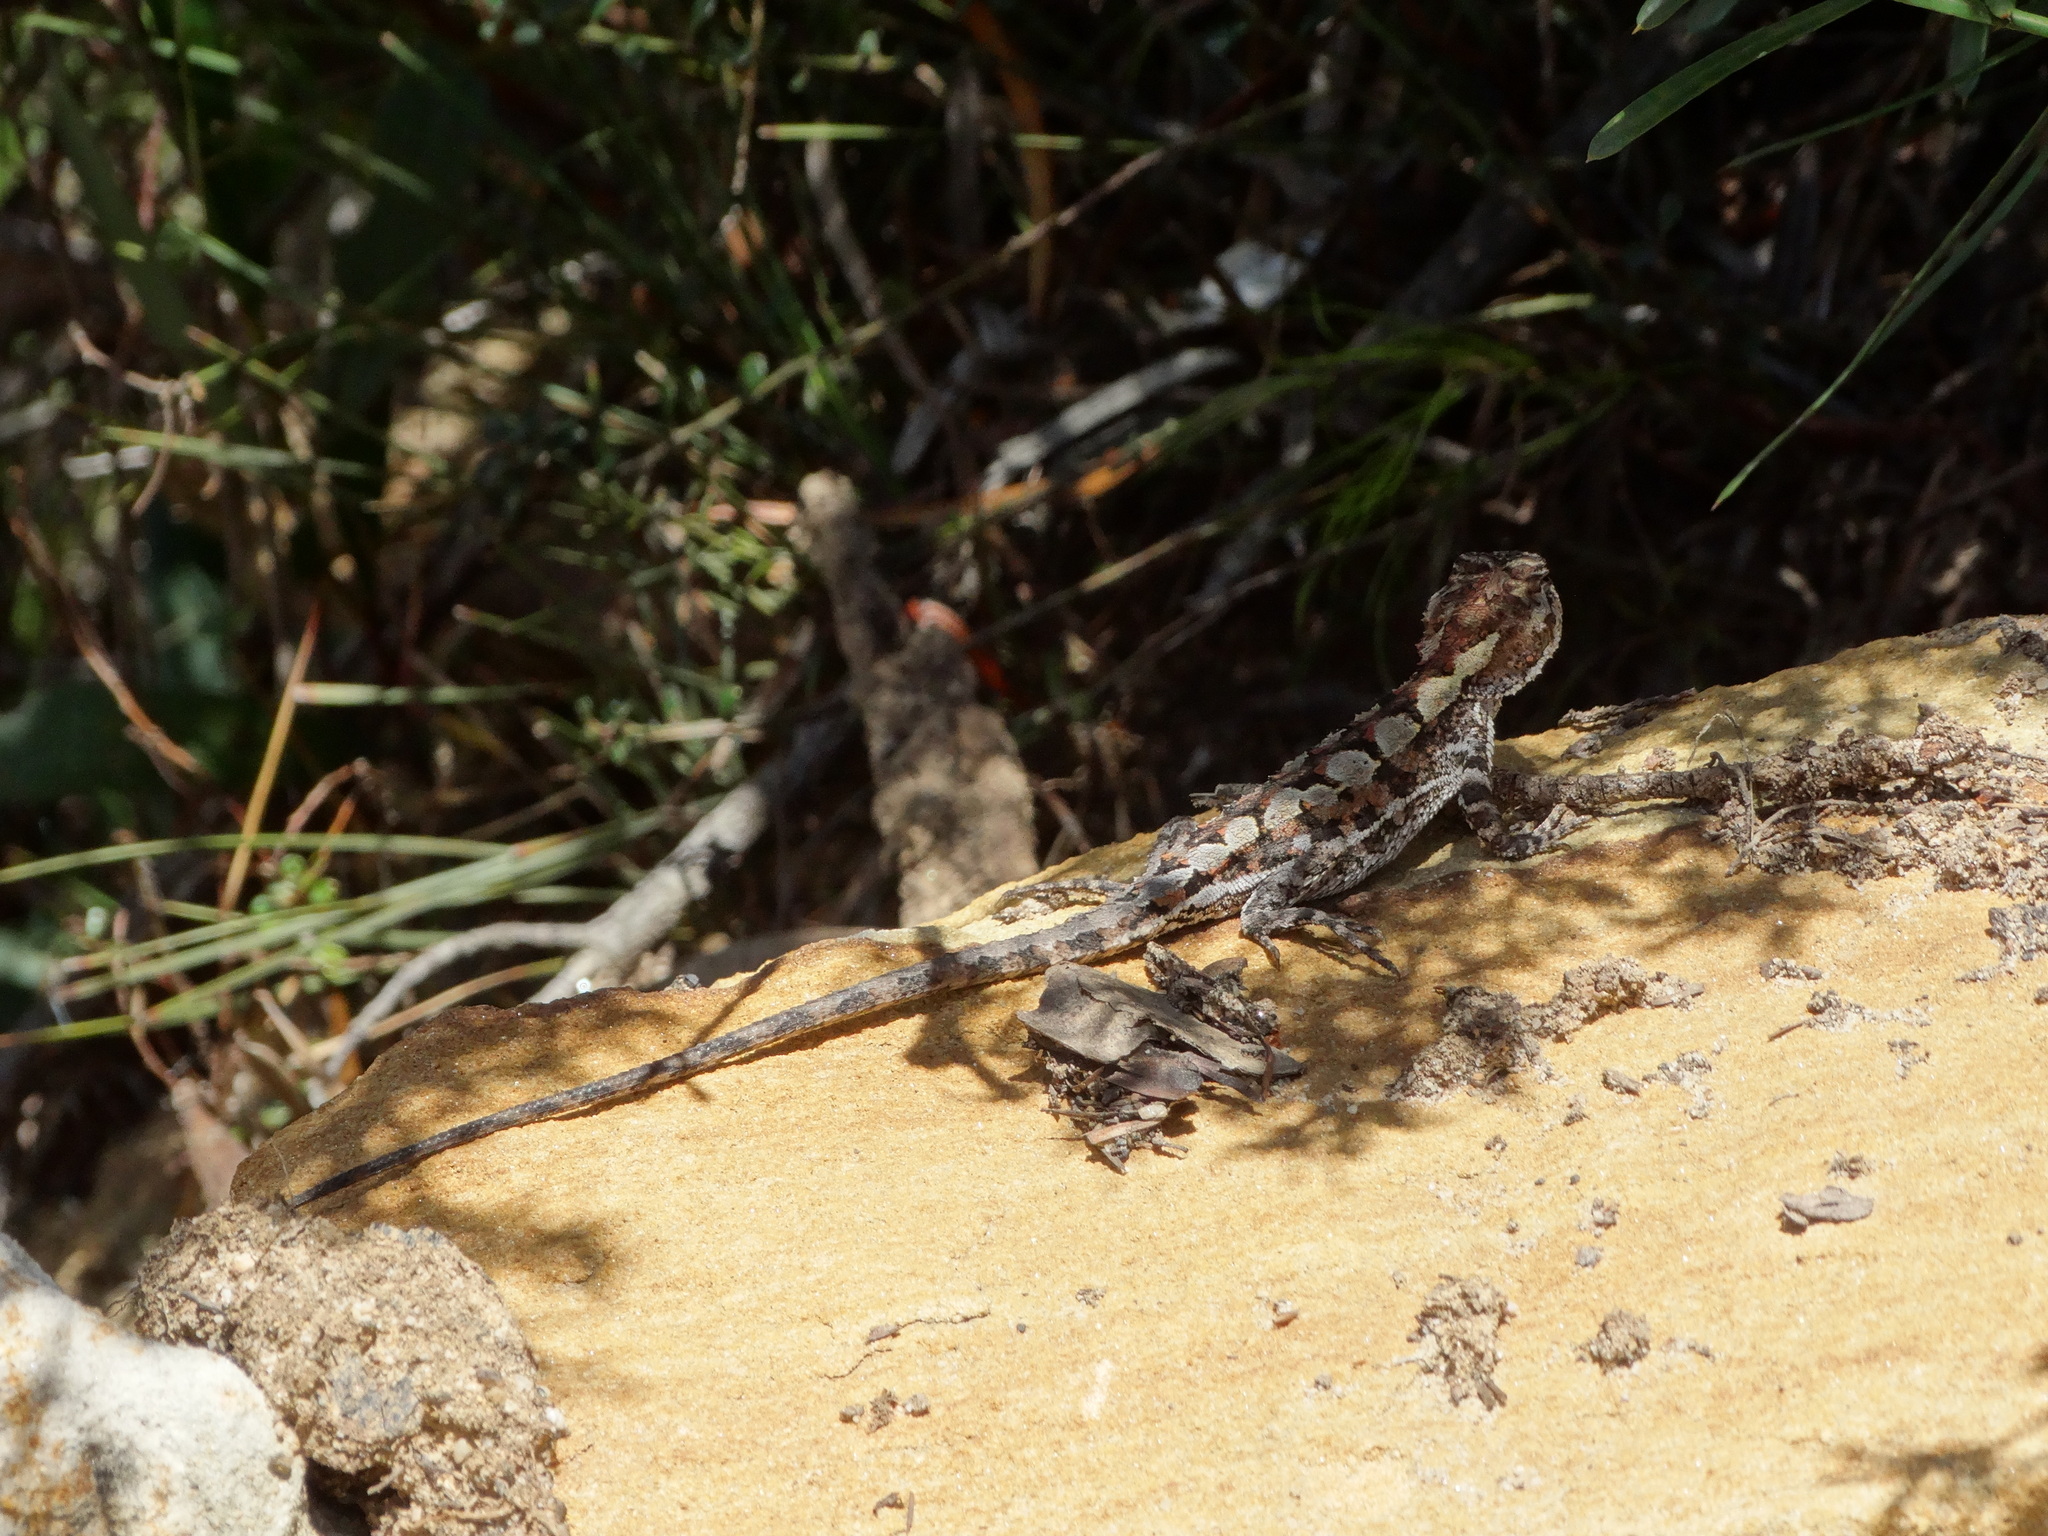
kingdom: Animalia
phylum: Chordata
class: Squamata
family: Agamidae
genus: Rankinia
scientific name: Rankinia diemensis
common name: Mountain dragon
